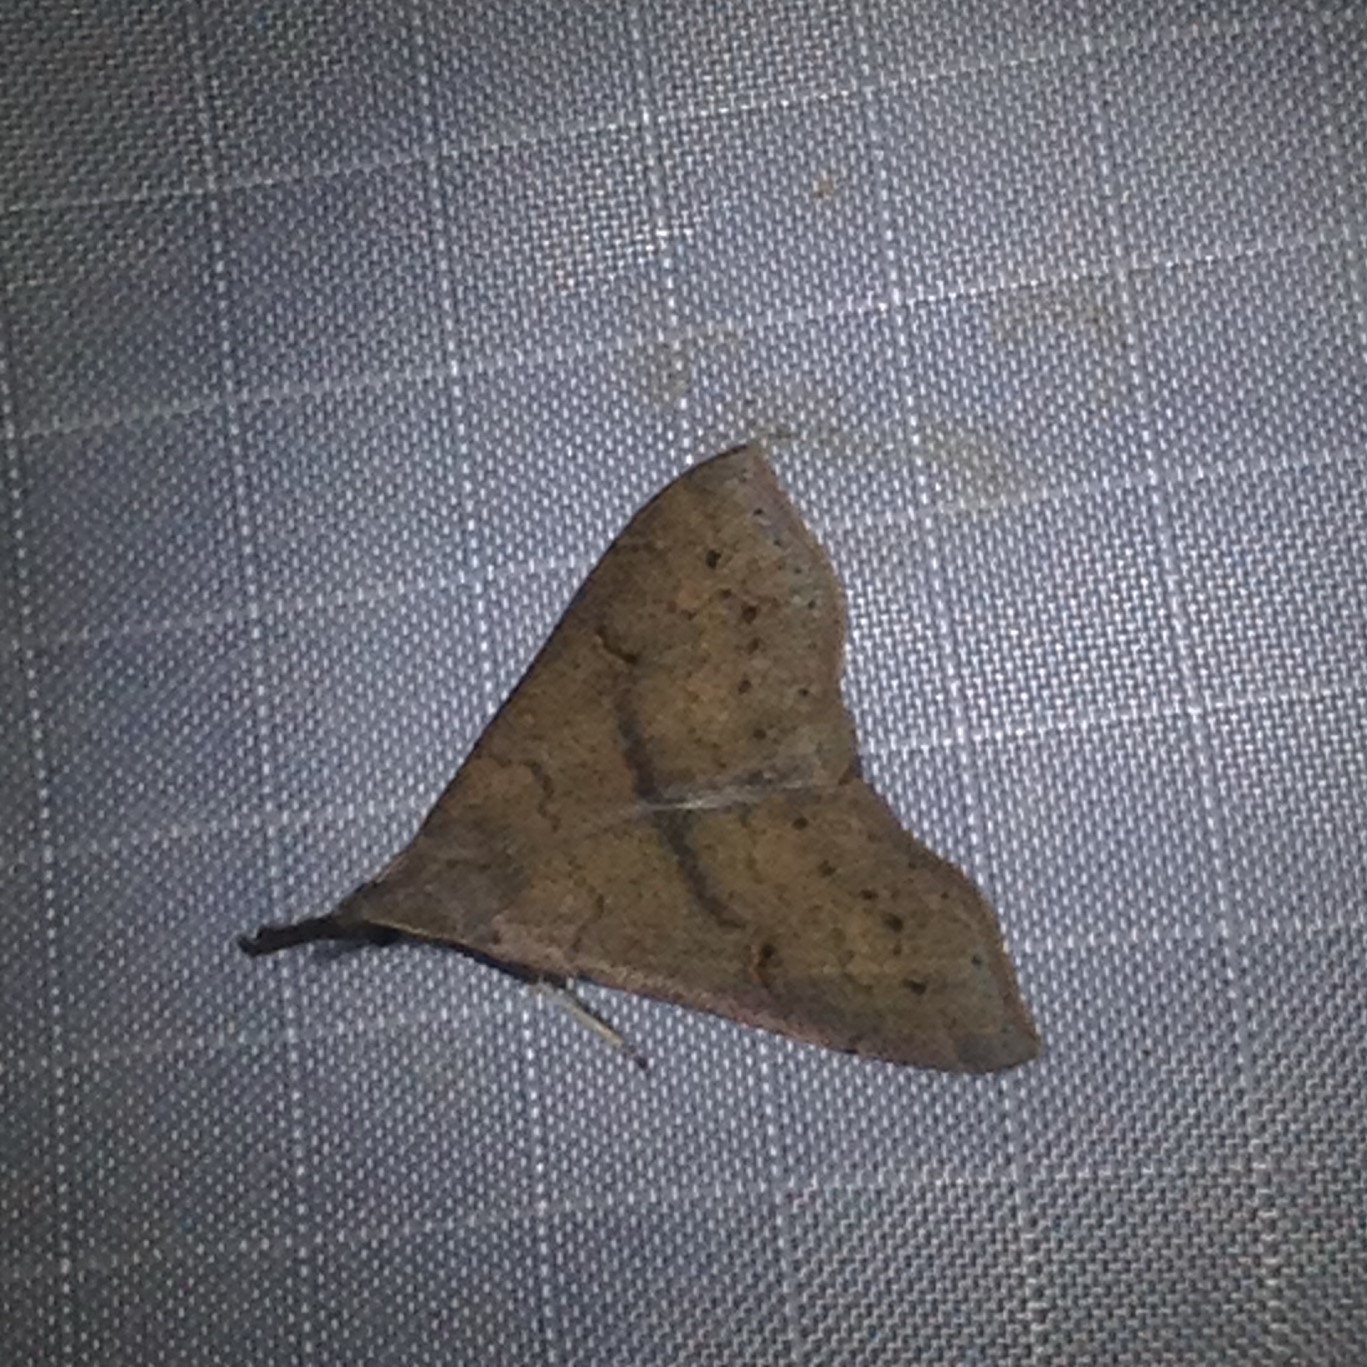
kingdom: Animalia
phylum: Arthropoda
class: Insecta
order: Lepidoptera
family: Erebidae
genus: Renia
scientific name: Renia adspergillus
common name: Speckled renia moth
